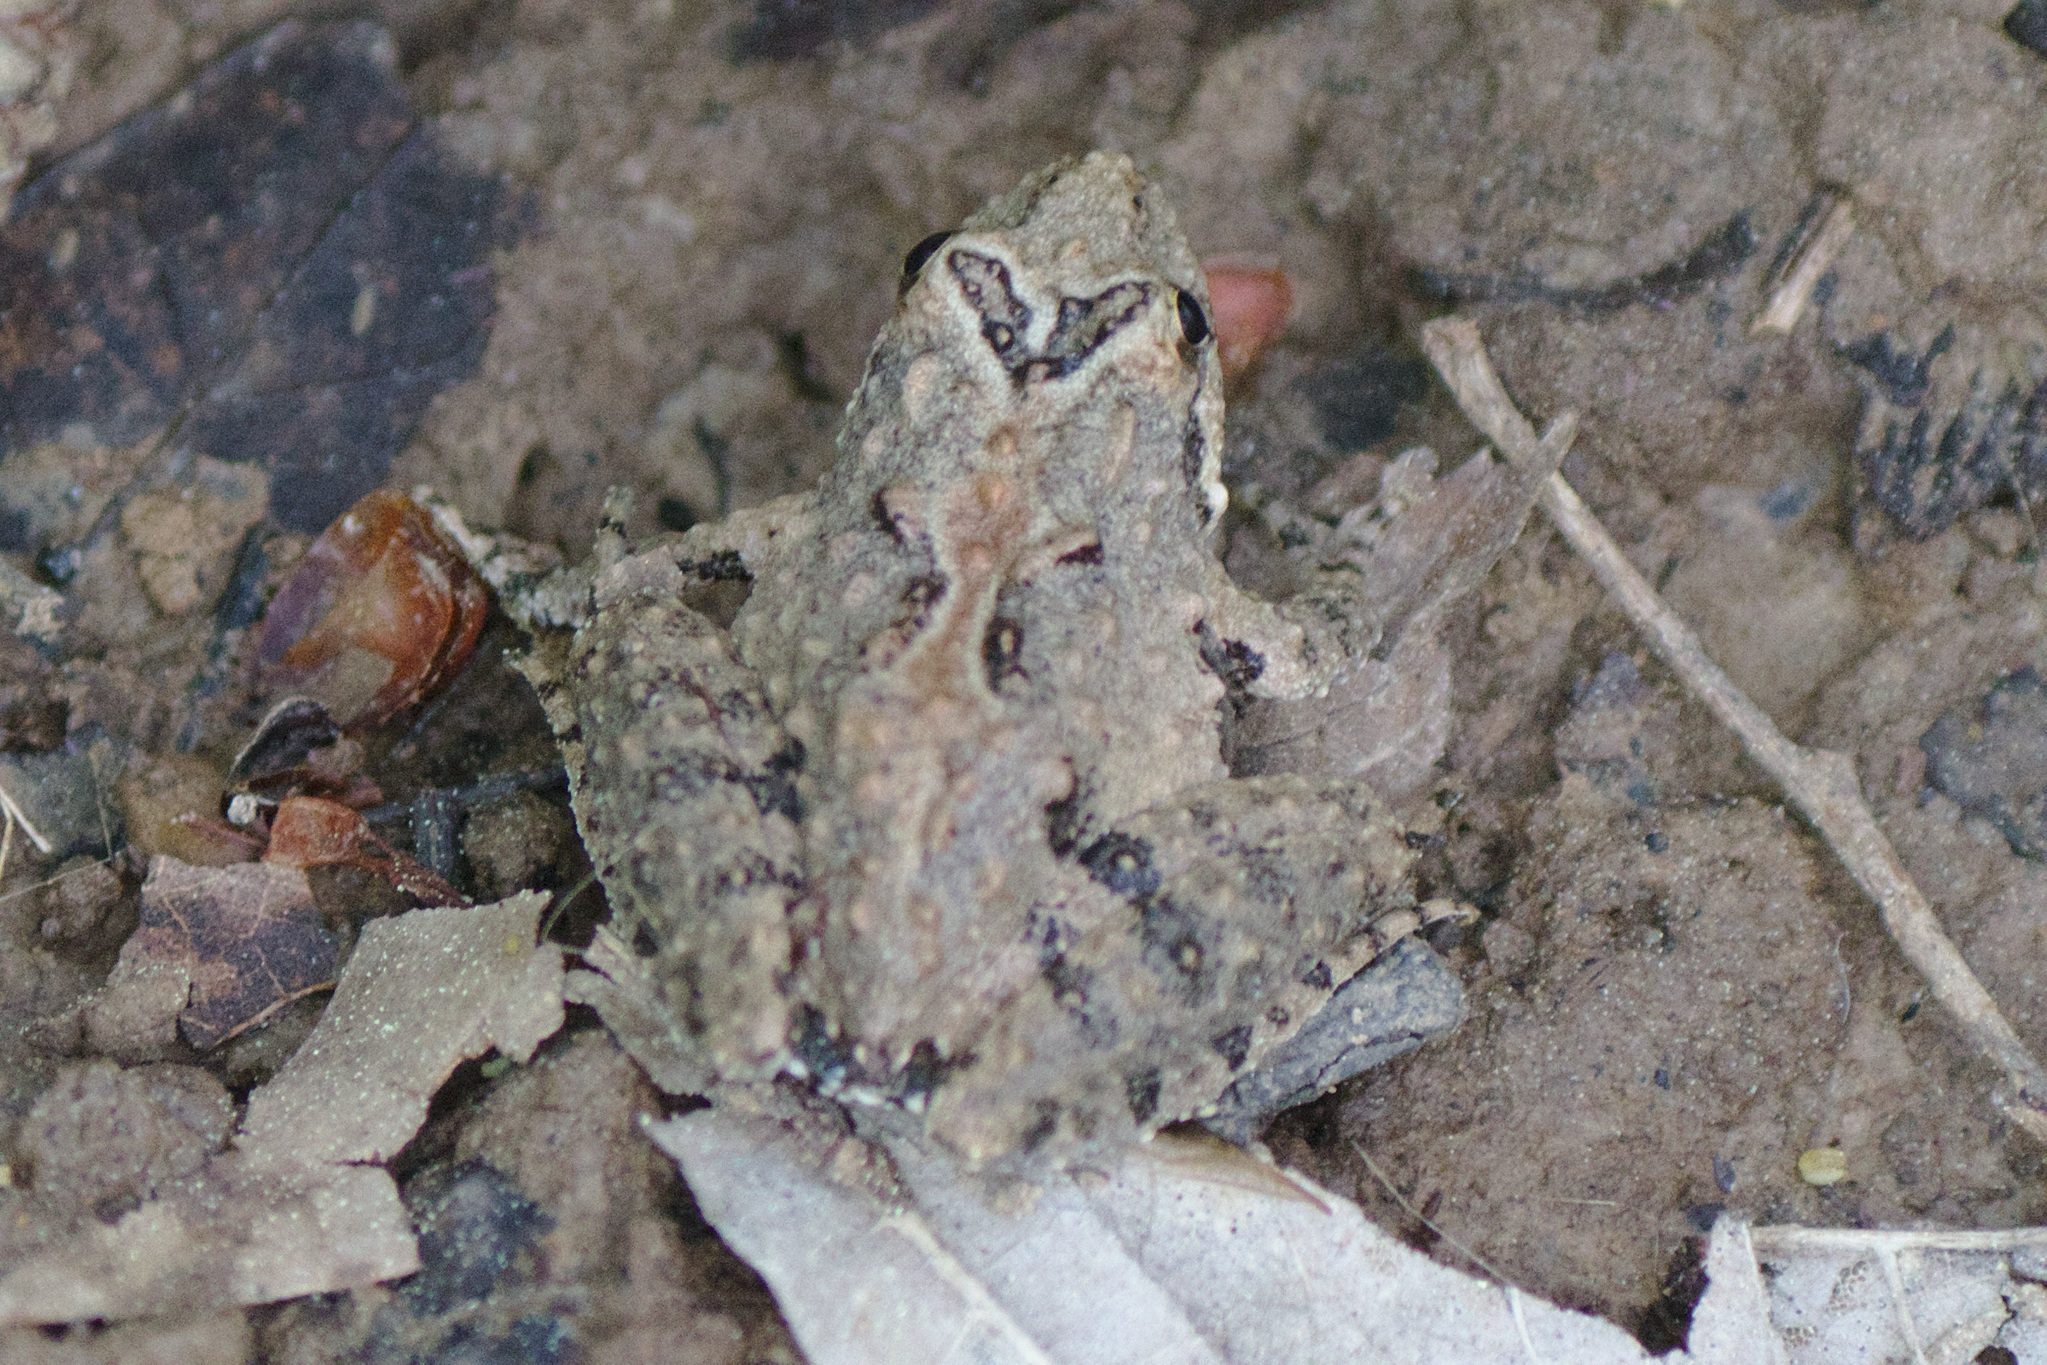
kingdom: Animalia
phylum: Chordata
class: Amphibia
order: Anura
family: Hylidae
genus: Acris
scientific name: Acris crepitans
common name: Northern cricket frog
